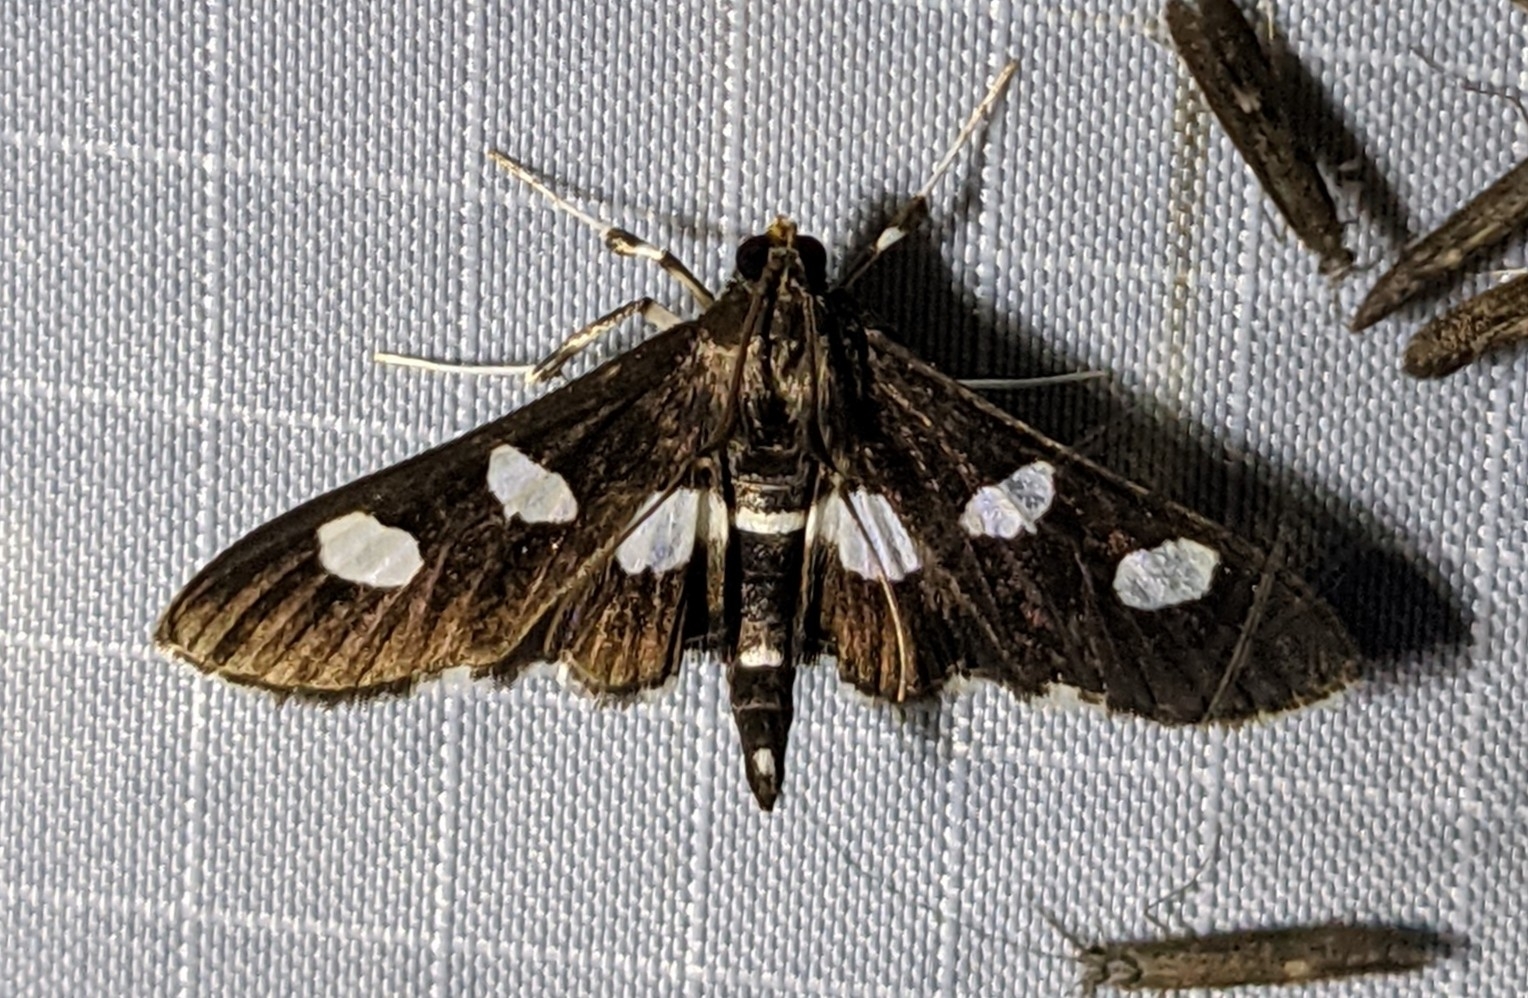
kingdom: Animalia
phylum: Arthropoda
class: Insecta
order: Lepidoptera
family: Crambidae
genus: Desmia
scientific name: Desmia
